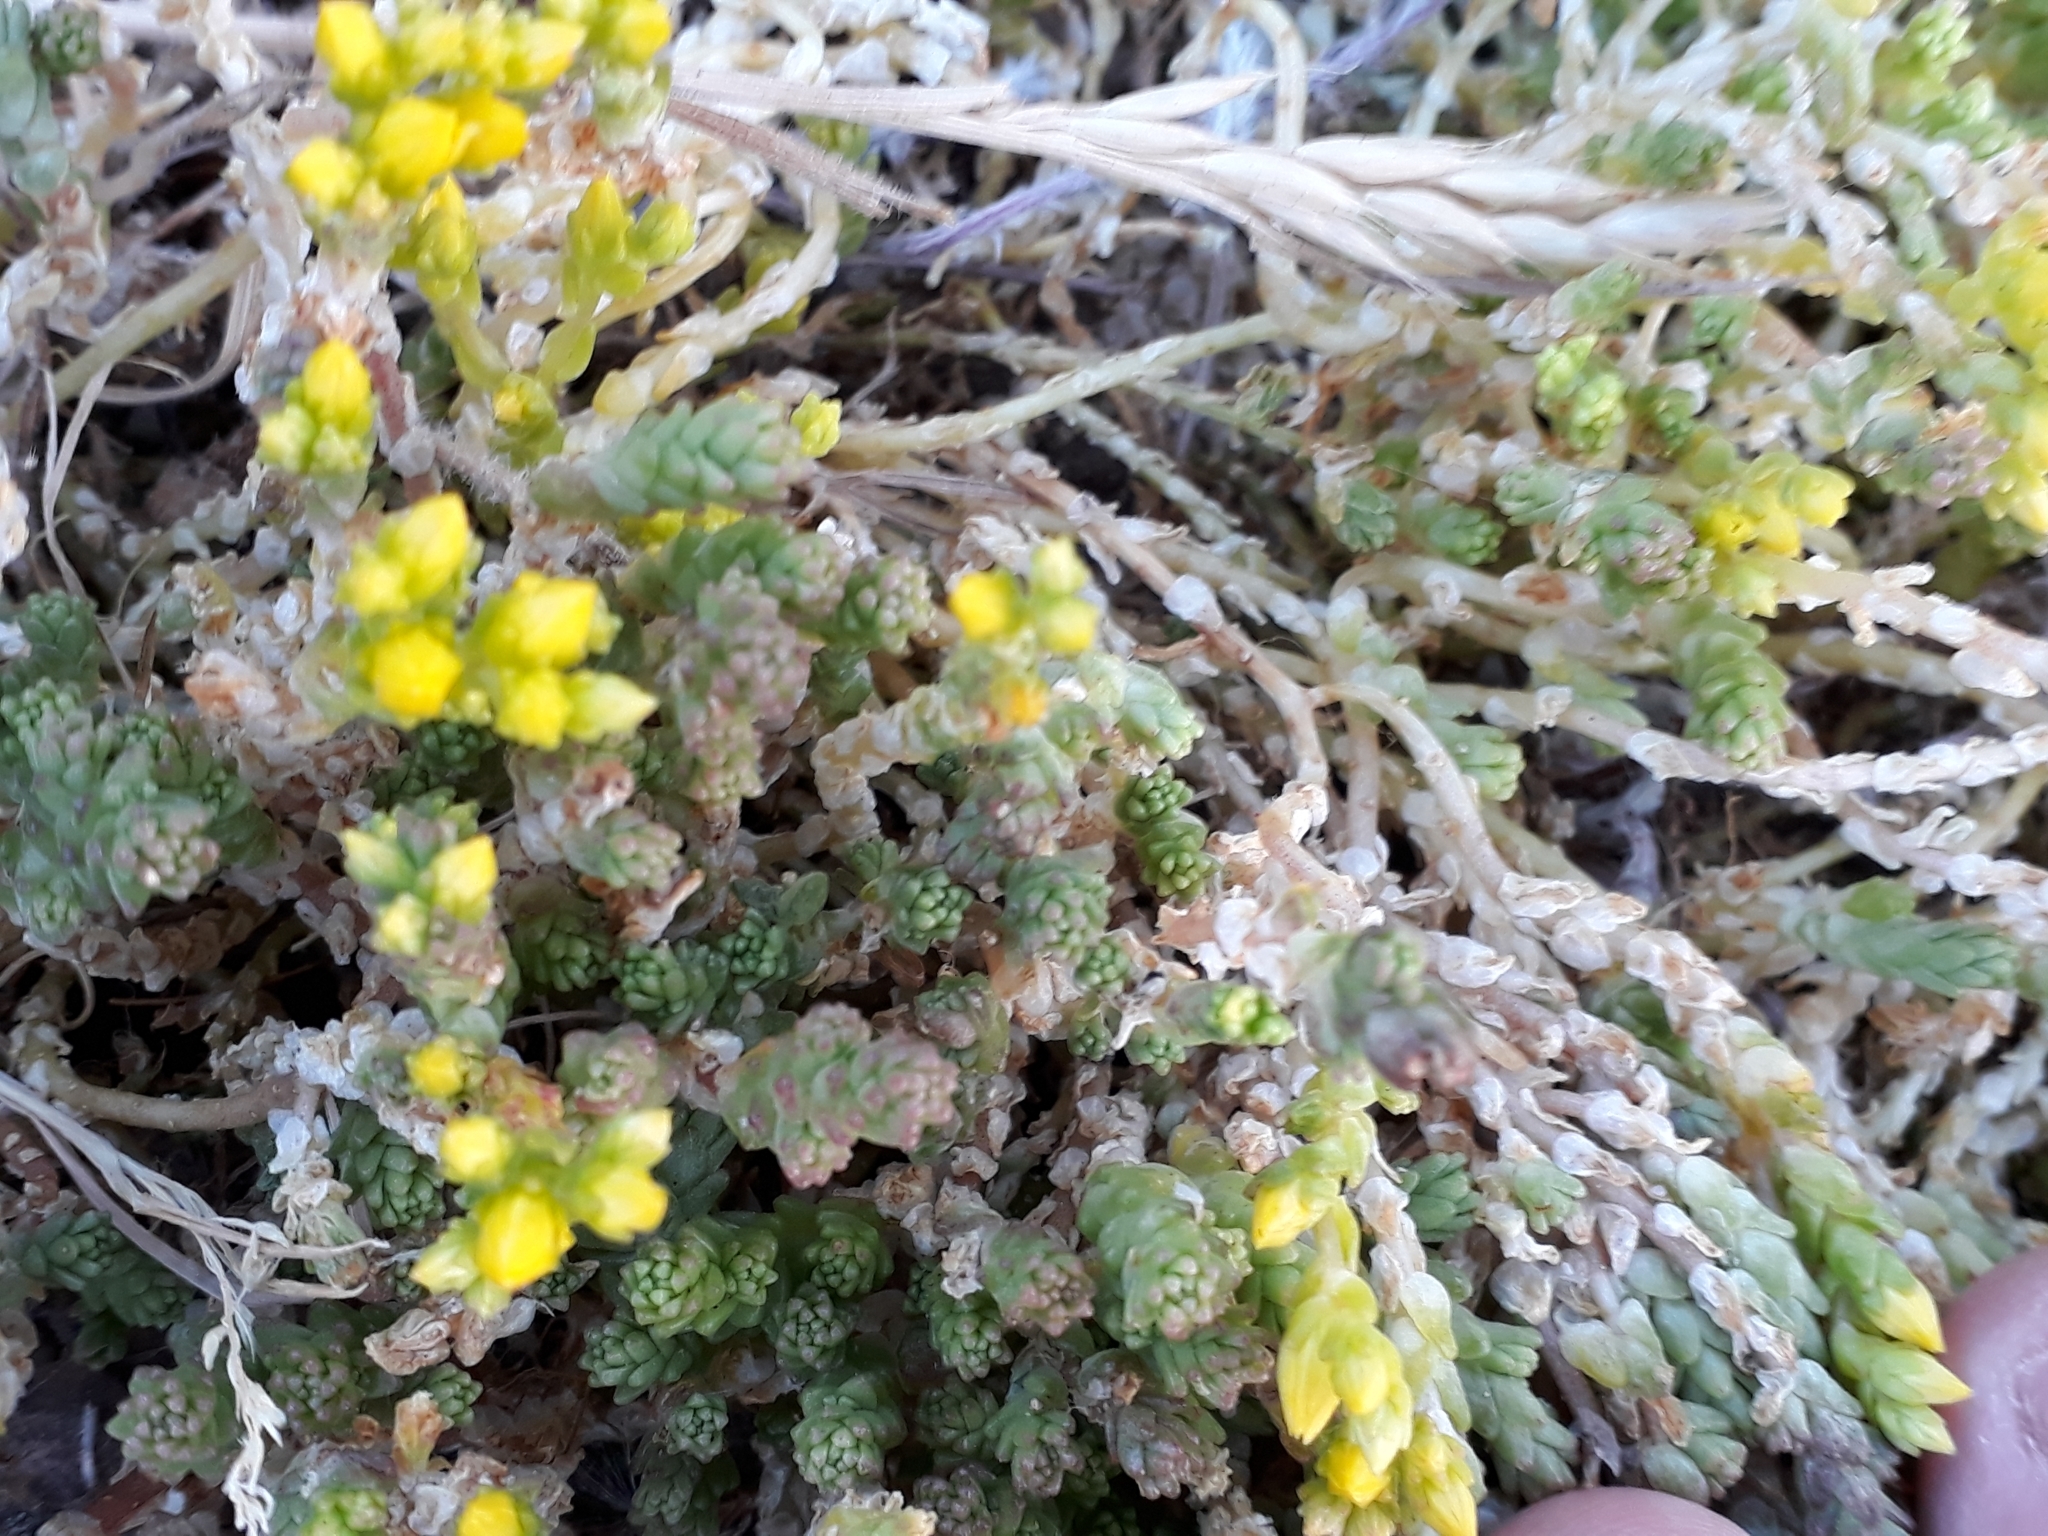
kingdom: Plantae
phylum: Tracheophyta
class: Magnoliopsida
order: Saxifragales
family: Crassulaceae
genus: Sedum
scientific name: Sedum acre
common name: Biting stonecrop
